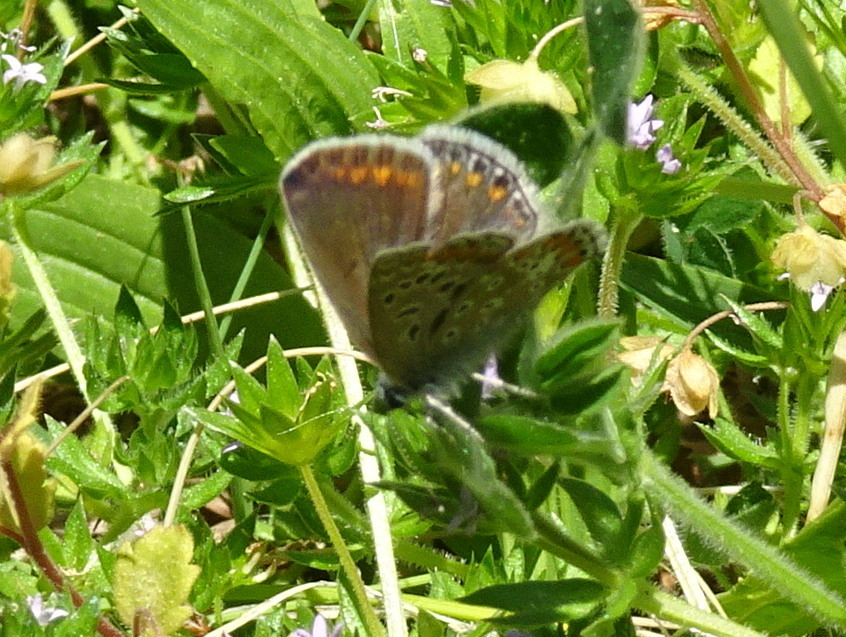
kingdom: Animalia
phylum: Arthropoda
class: Insecta
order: Lepidoptera
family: Lycaenidae
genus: Polyommatus
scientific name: Polyommatus icarus
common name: Common blue
